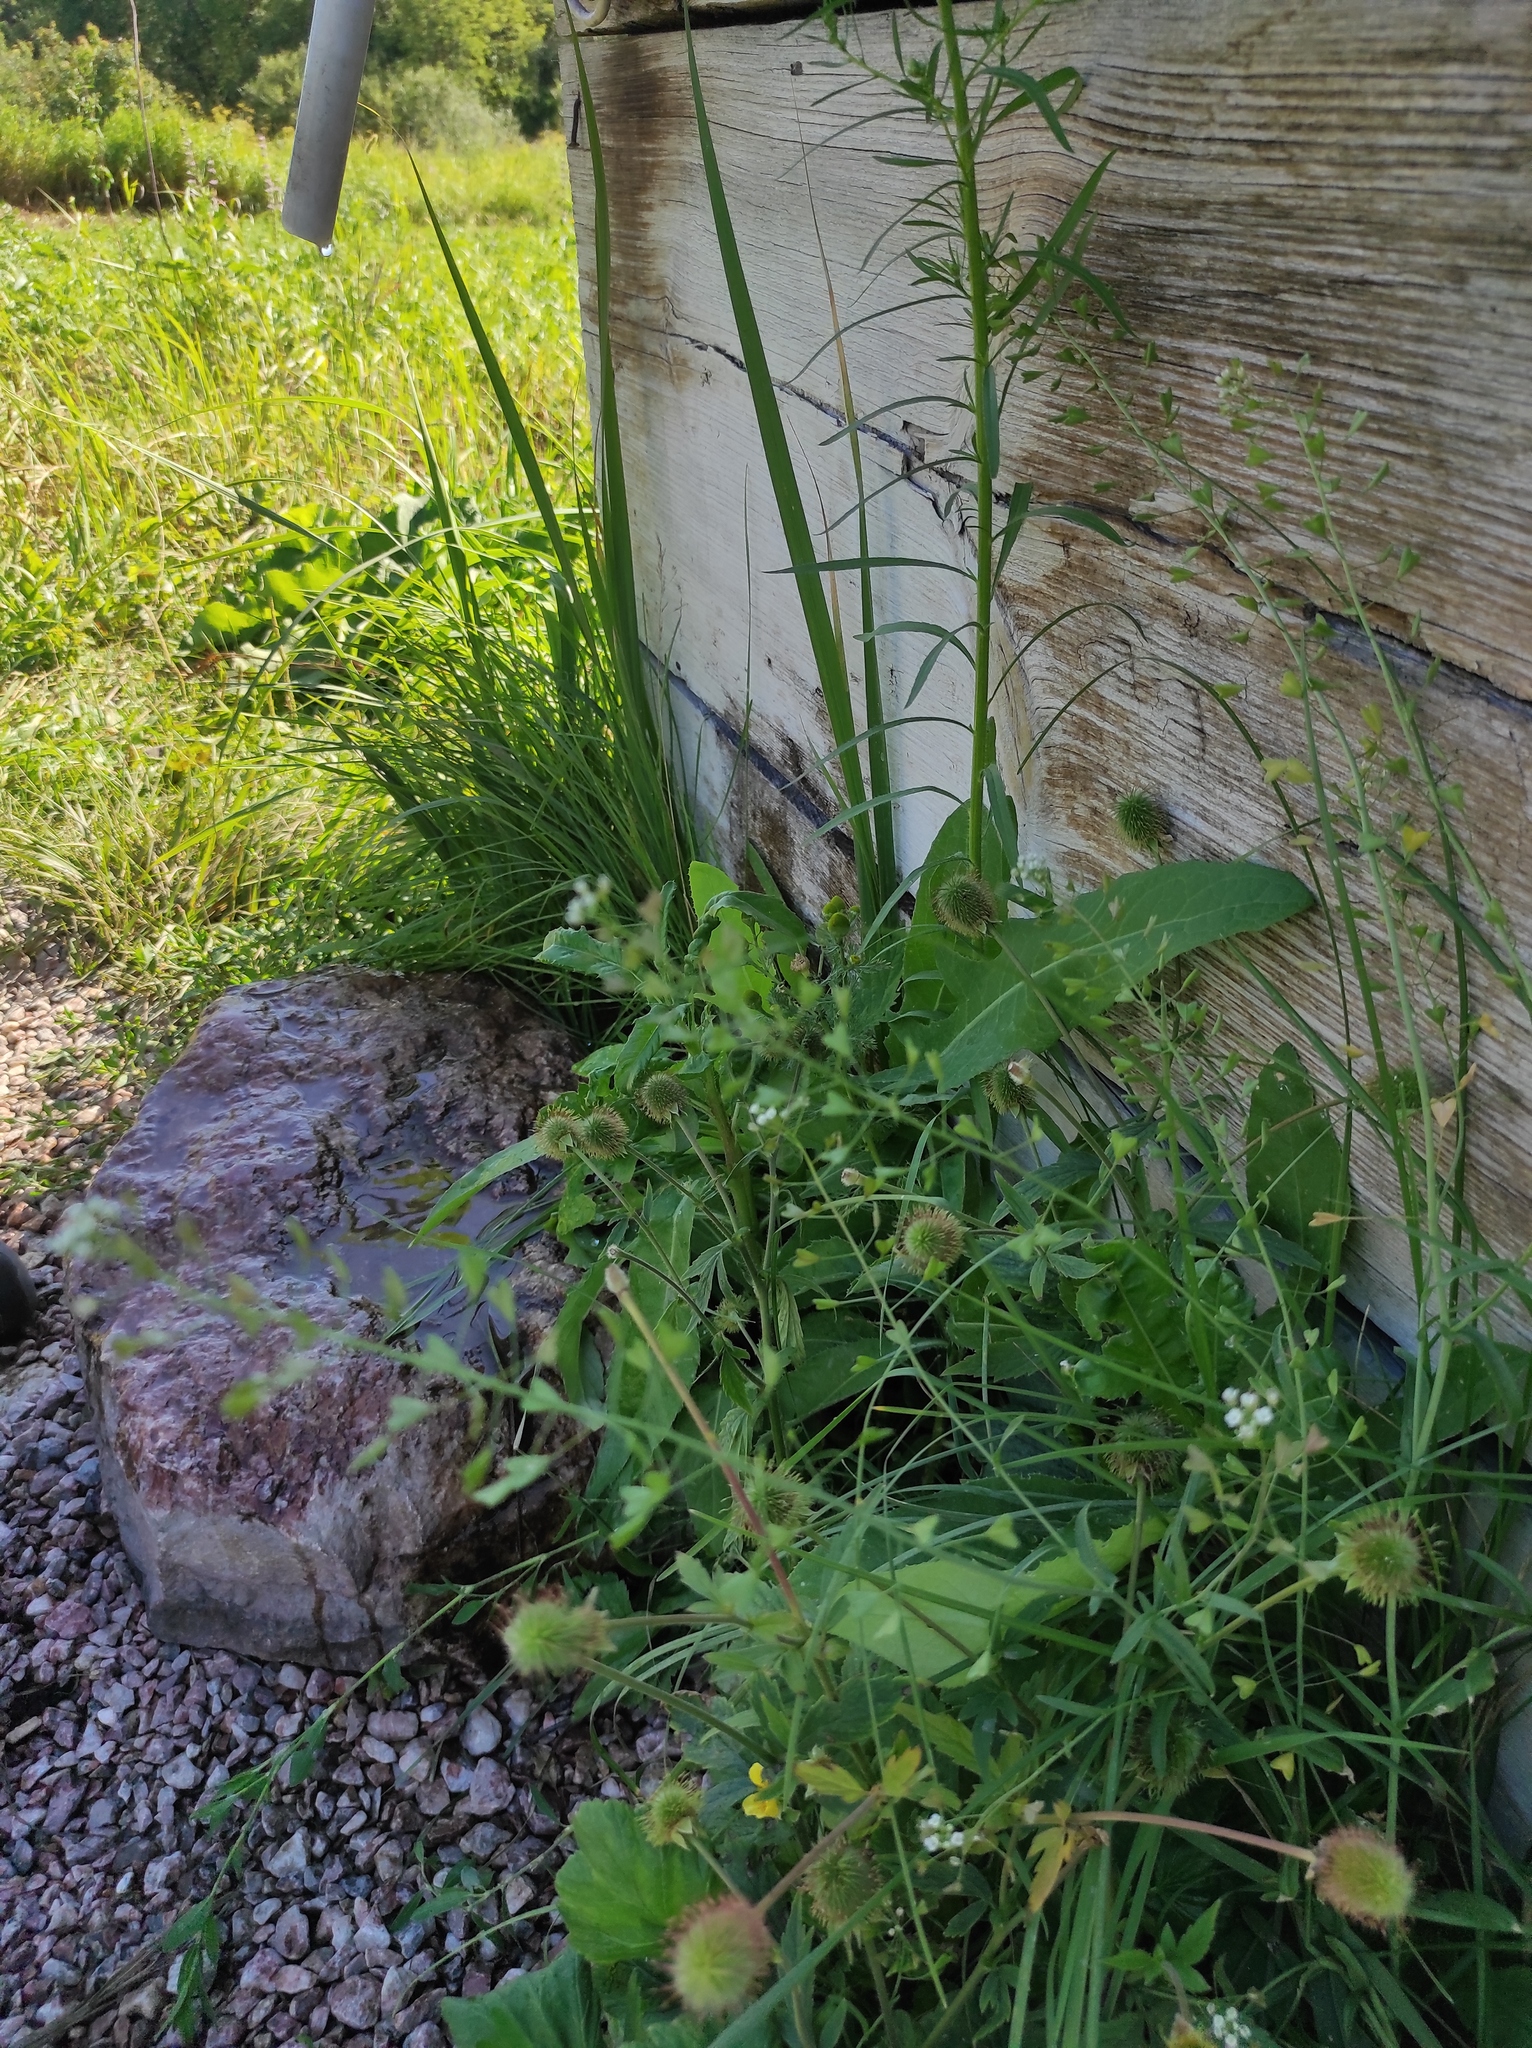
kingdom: Plantae
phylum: Tracheophyta
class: Magnoliopsida
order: Brassicales
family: Brassicaceae
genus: Capsella
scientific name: Capsella bursa-pastoris
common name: Shepherd's purse
